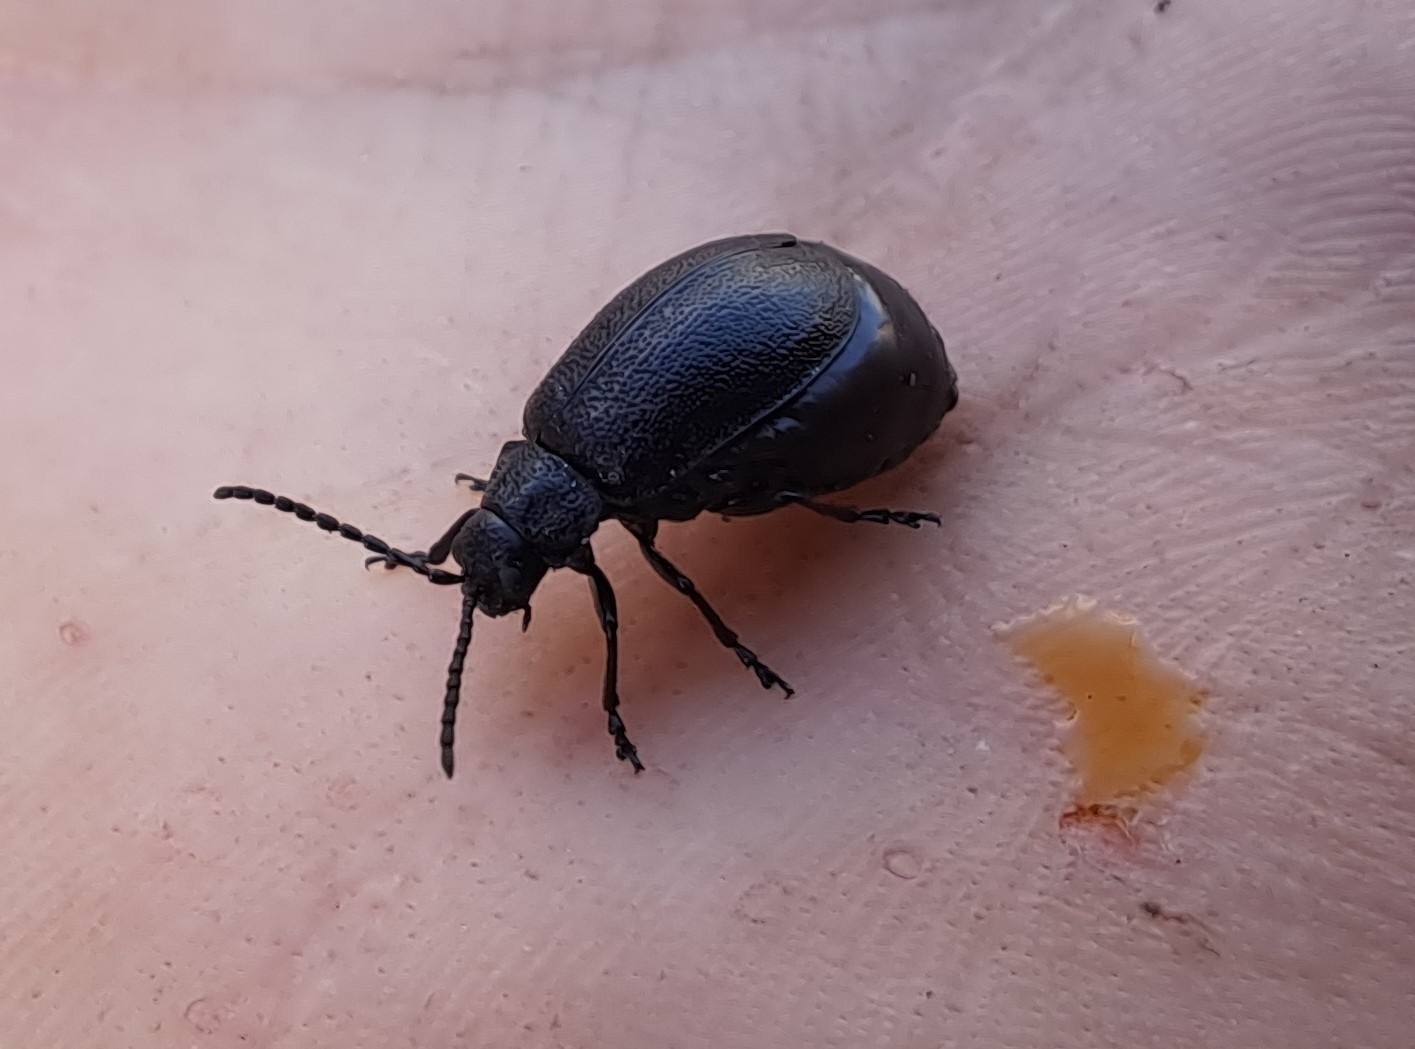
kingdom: Animalia
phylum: Arthropoda
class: Insecta
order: Coleoptera
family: Chrysomelidae
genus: Galeruca
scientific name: Galeruca tanaceti
